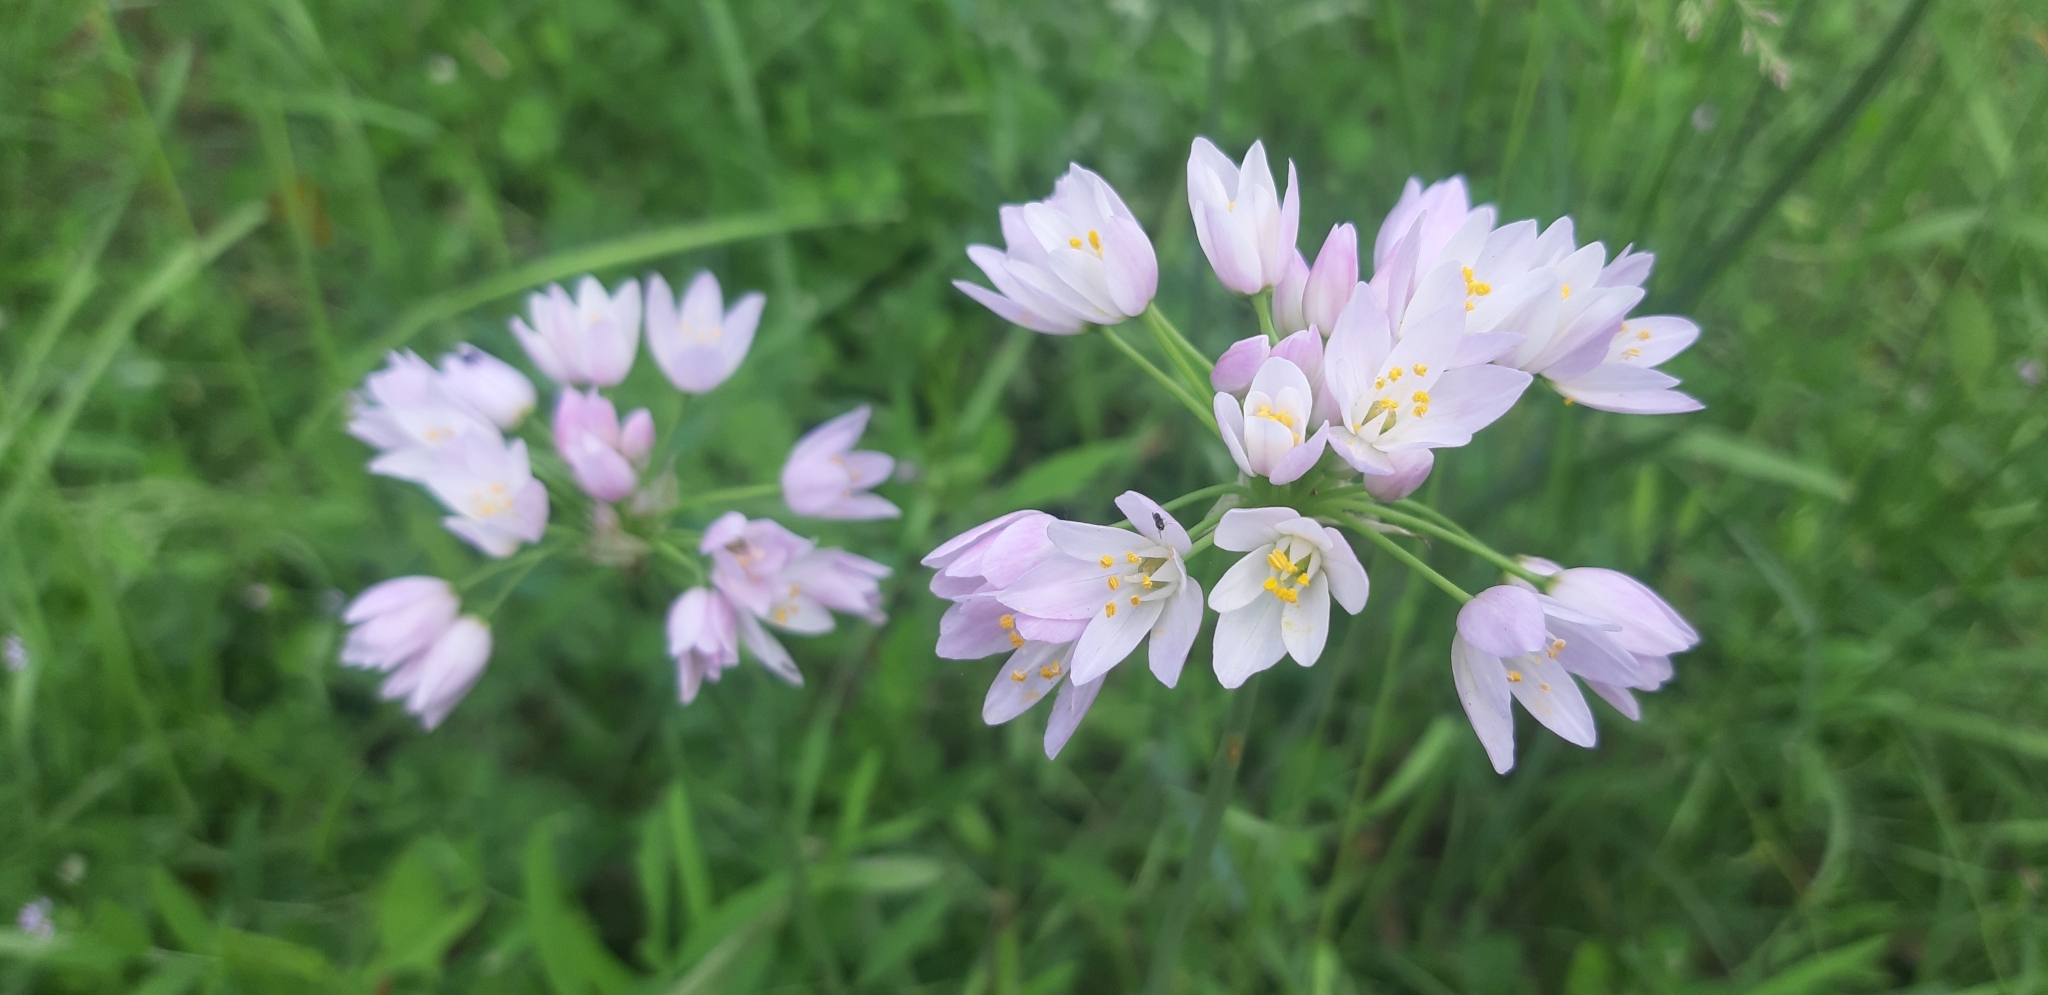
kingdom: Plantae
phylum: Tracheophyta
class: Liliopsida
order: Asparagales
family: Amaryllidaceae
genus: Allium
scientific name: Allium roseum
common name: Rosy garlic
